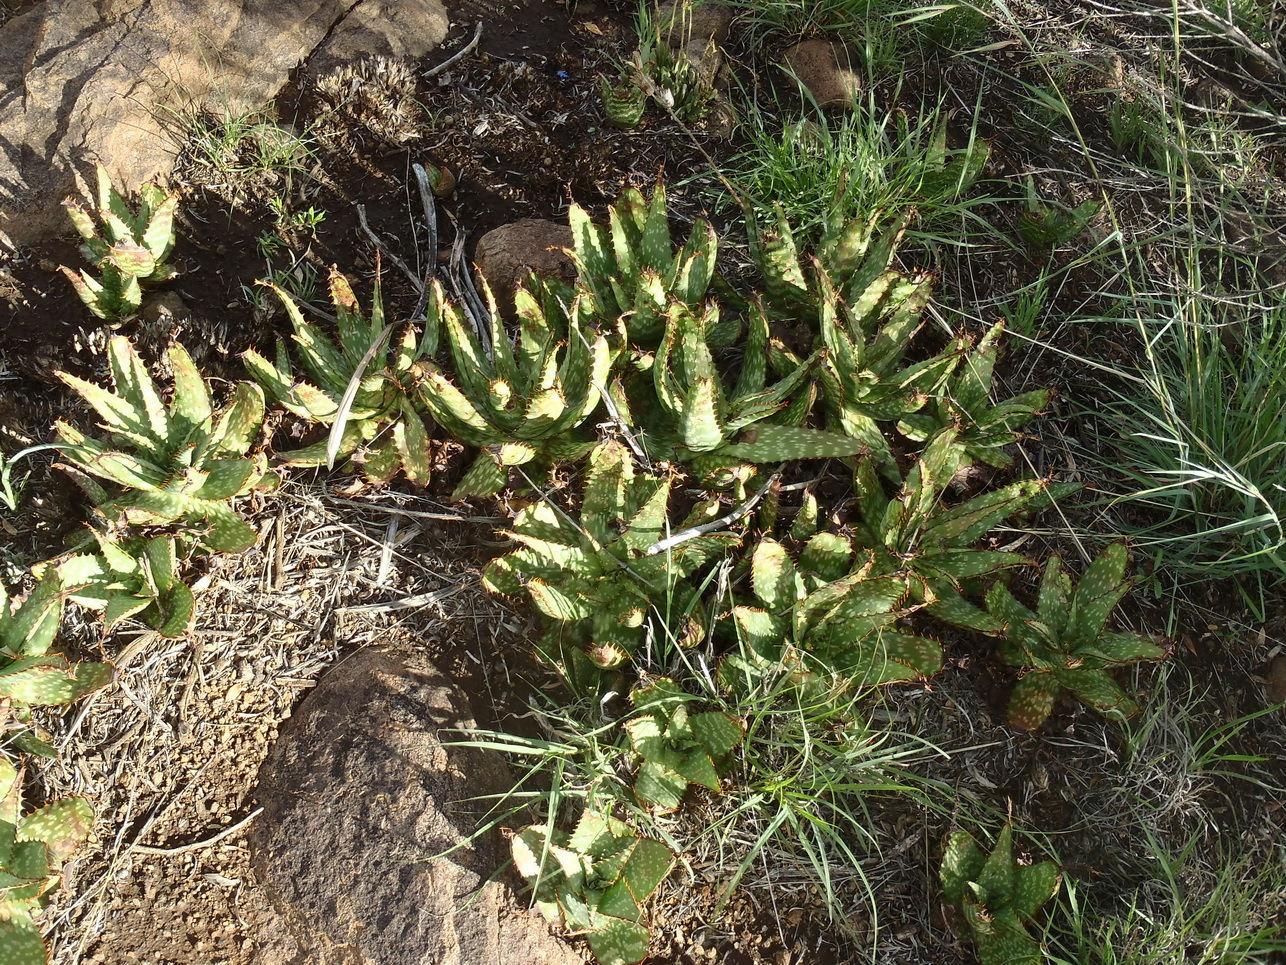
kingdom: Plantae
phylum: Tracheophyta
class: Liliopsida
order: Asparagales
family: Asphodelaceae
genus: Aloe
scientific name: Aloe grandidentata
